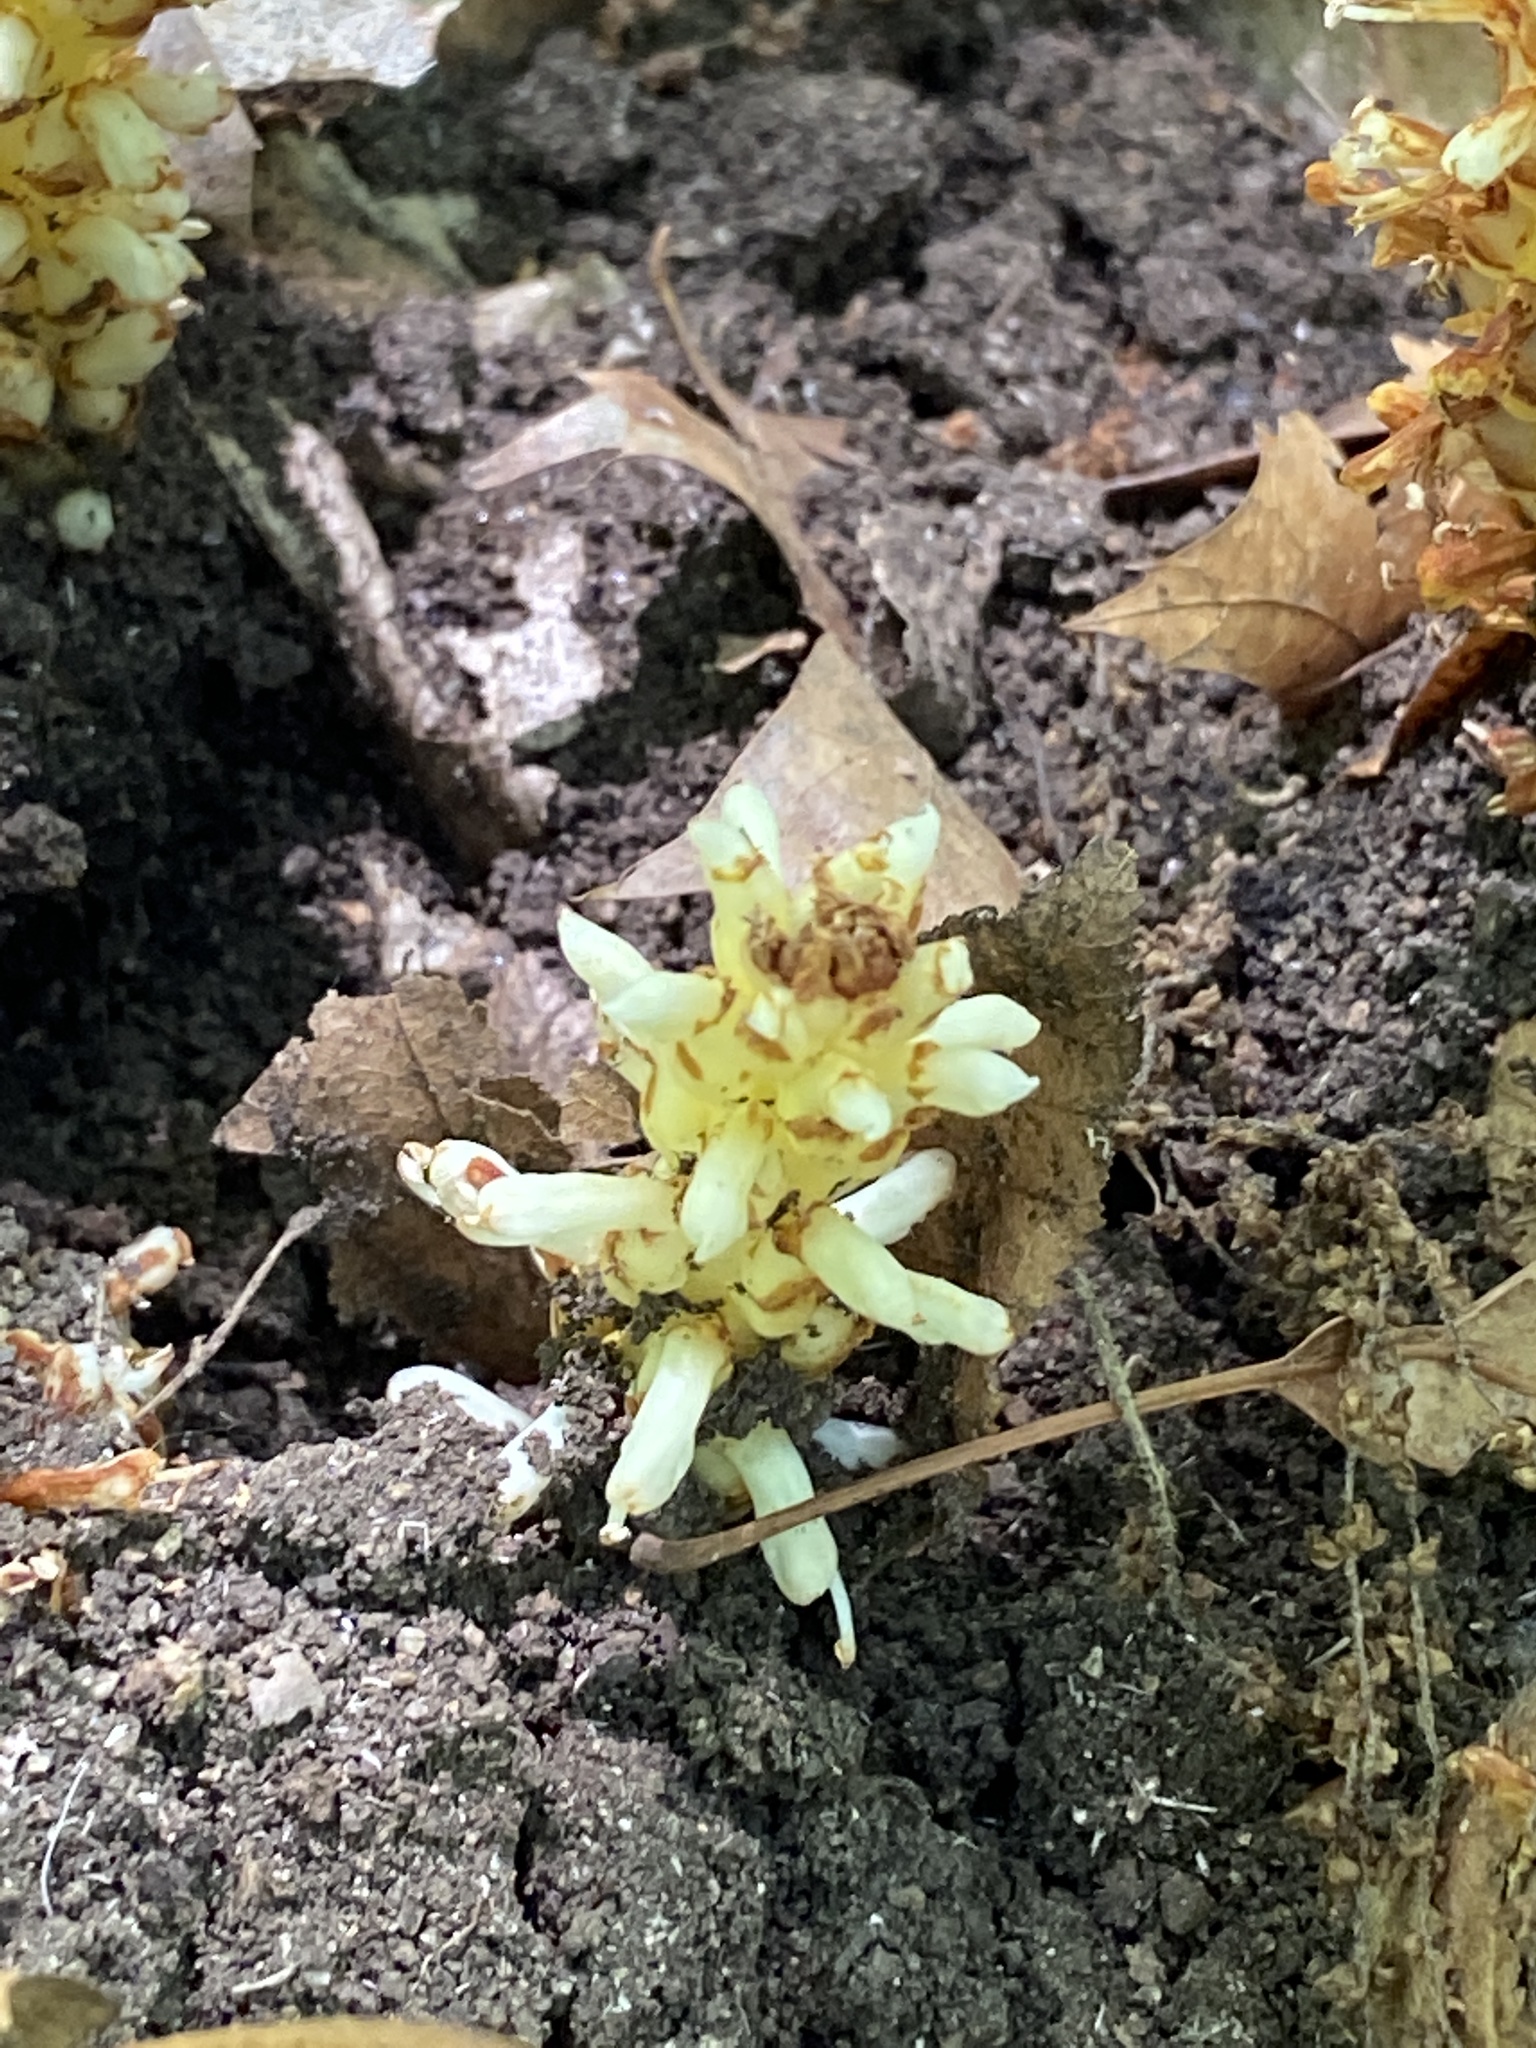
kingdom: Plantae
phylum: Tracheophyta
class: Magnoliopsida
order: Lamiales
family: Orobanchaceae
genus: Conopholis
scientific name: Conopholis americana
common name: American cancer-root
